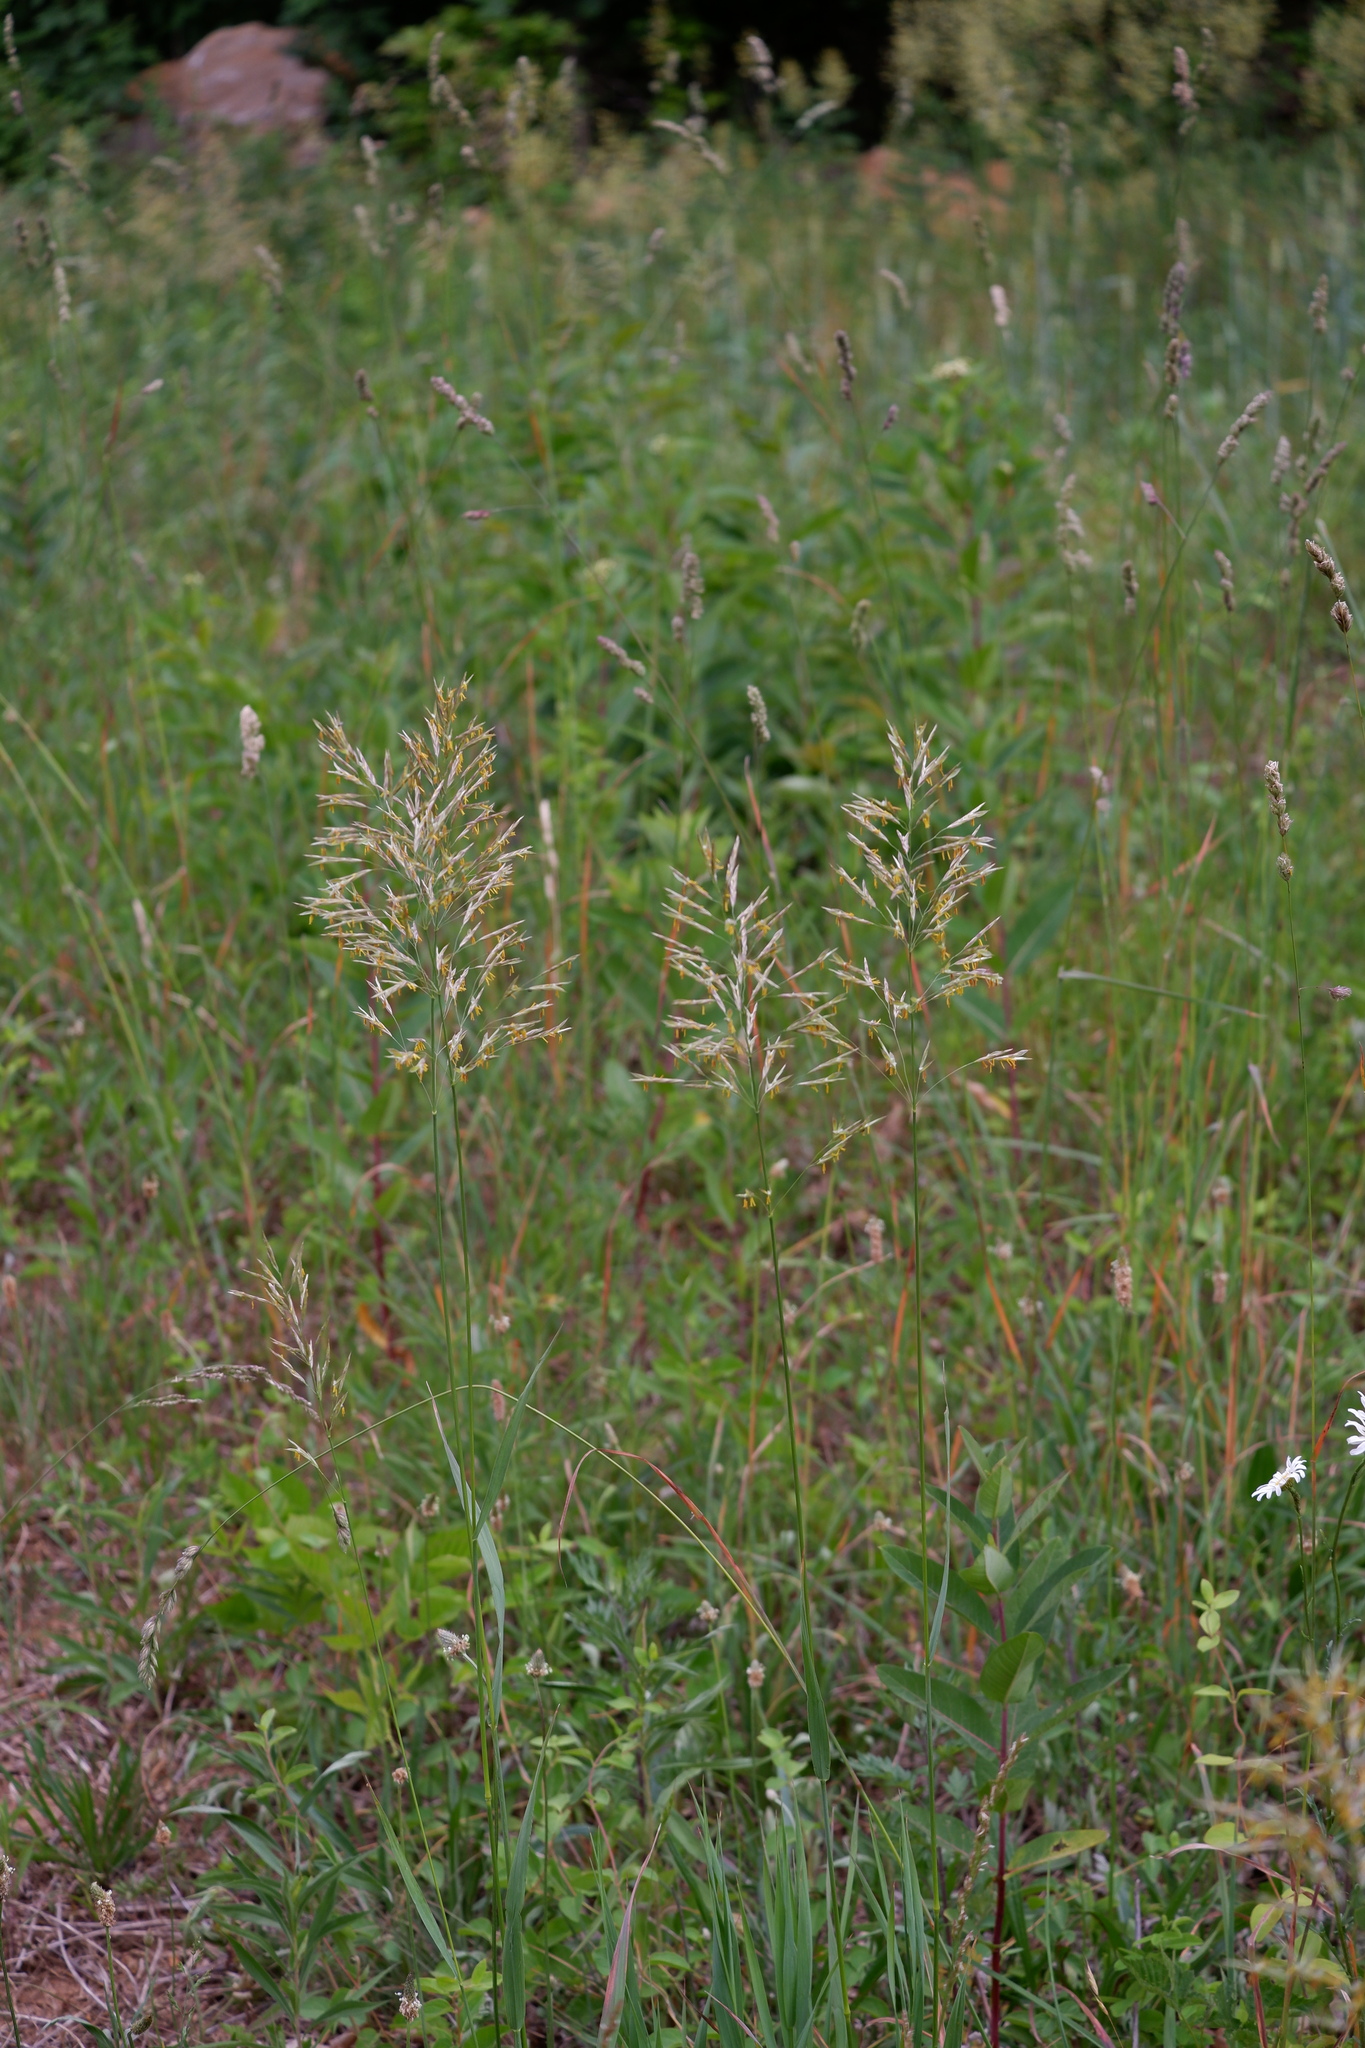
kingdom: Plantae
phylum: Tracheophyta
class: Liliopsida
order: Poales
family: Poaceae
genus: Bromus
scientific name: Bromus inermis
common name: Smooth brome
